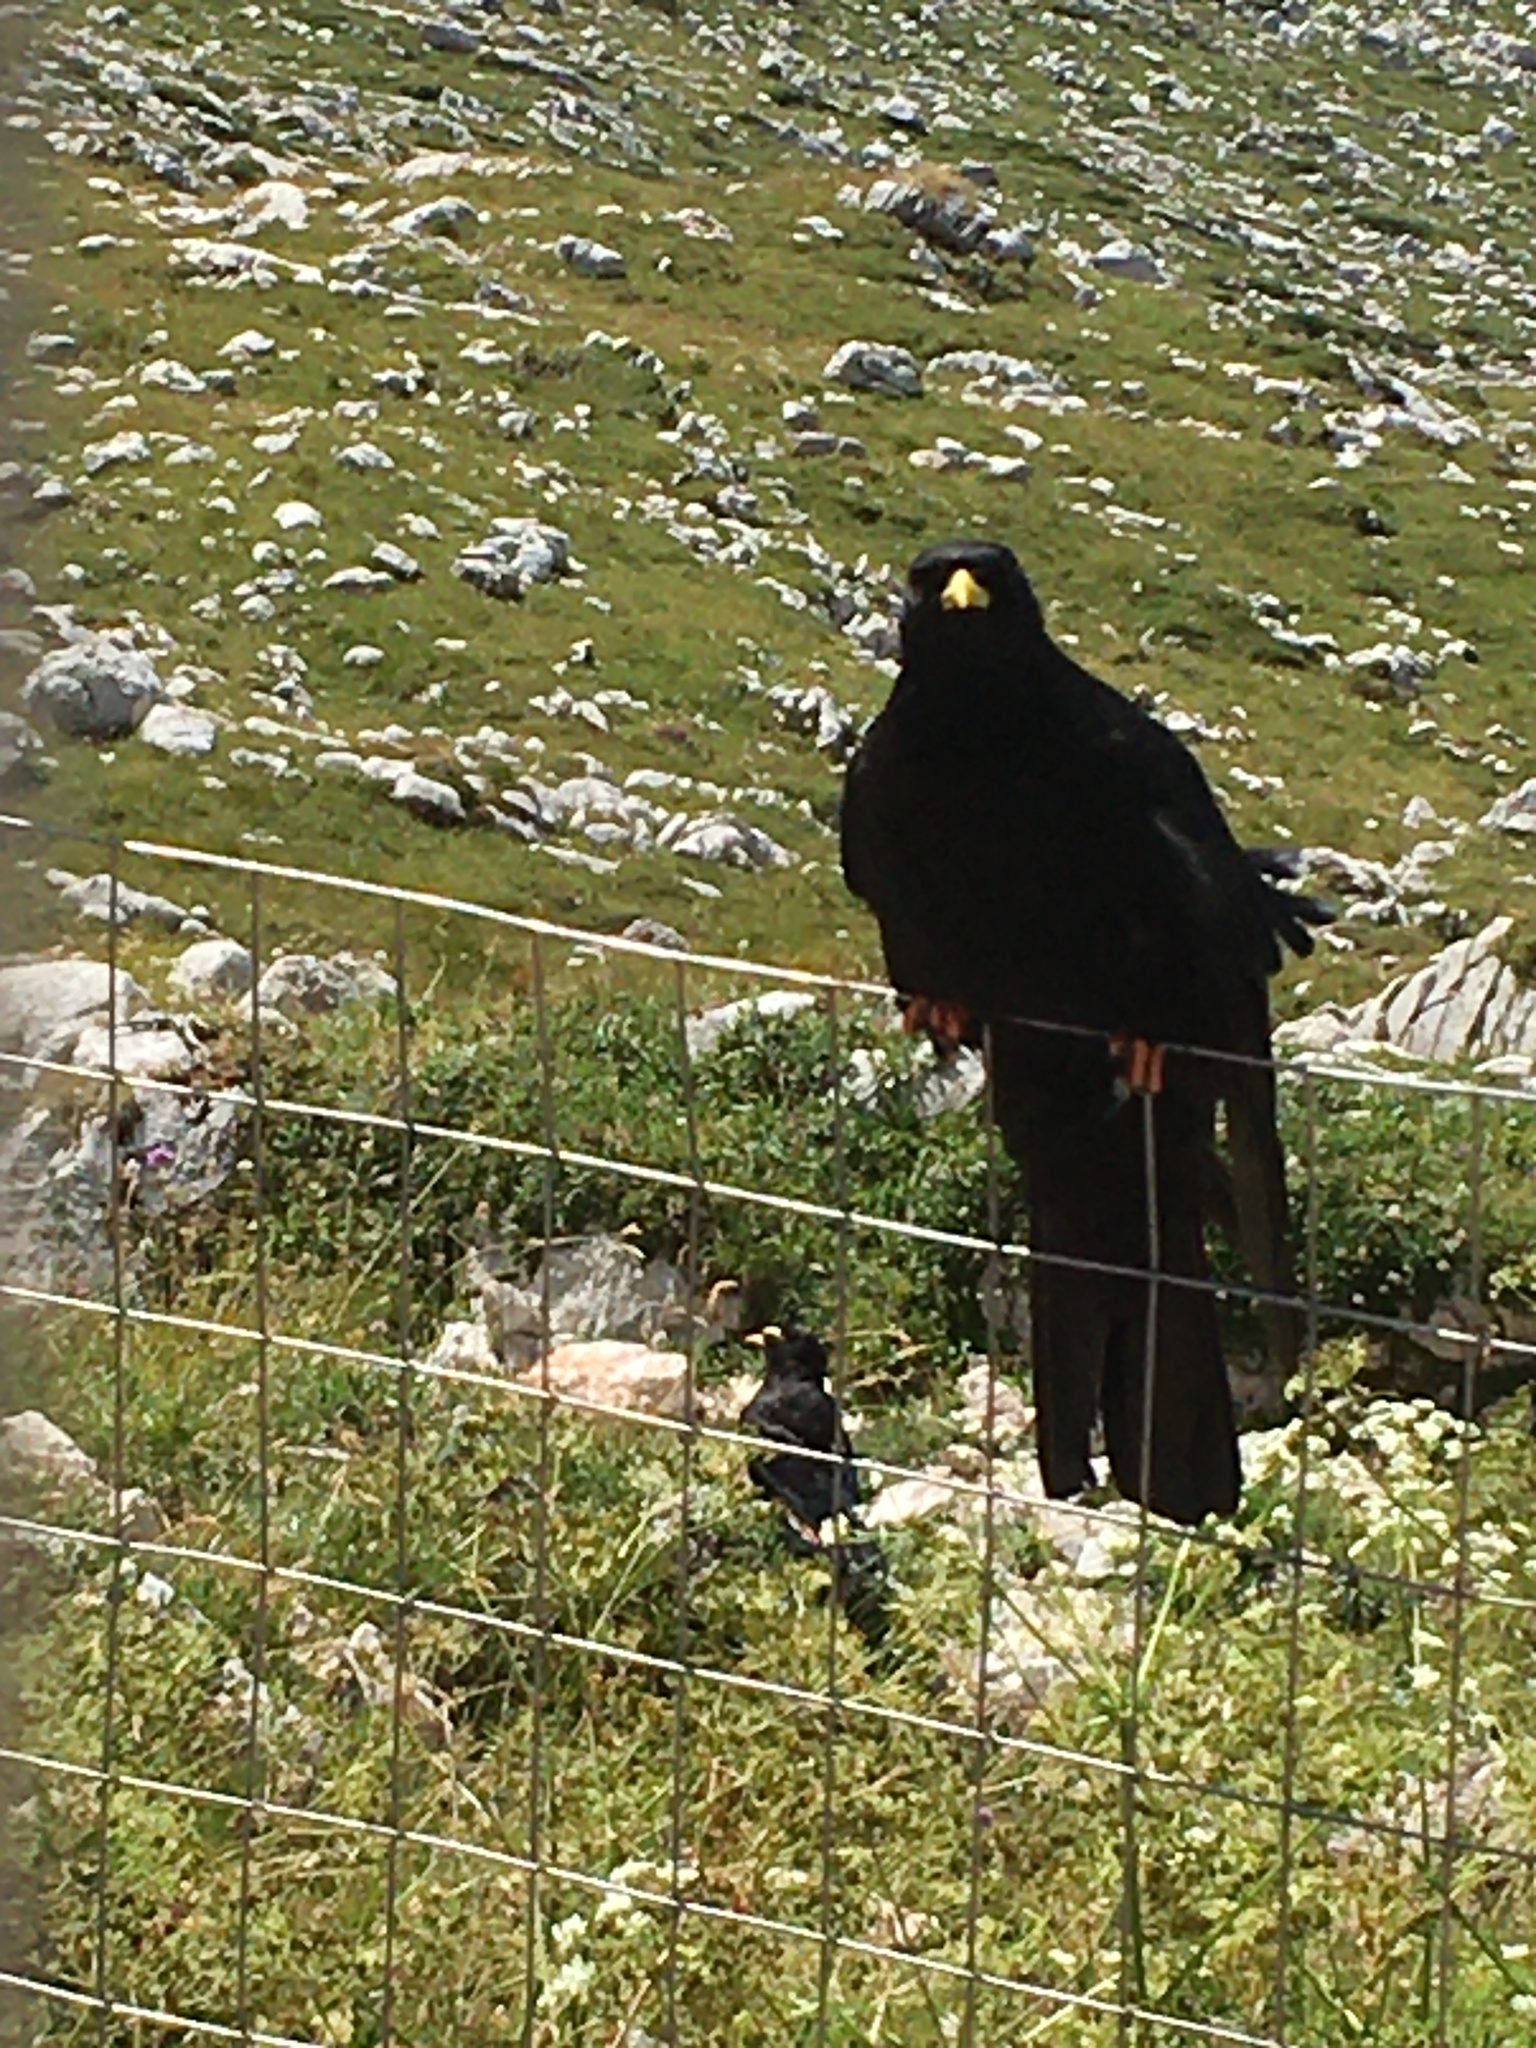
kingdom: Animalia
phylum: Chordata
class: Aves
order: Passeriformes
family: Corvidae
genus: Pyrrhocorax
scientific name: Pyrrhocorax graculus
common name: Alpine chough
